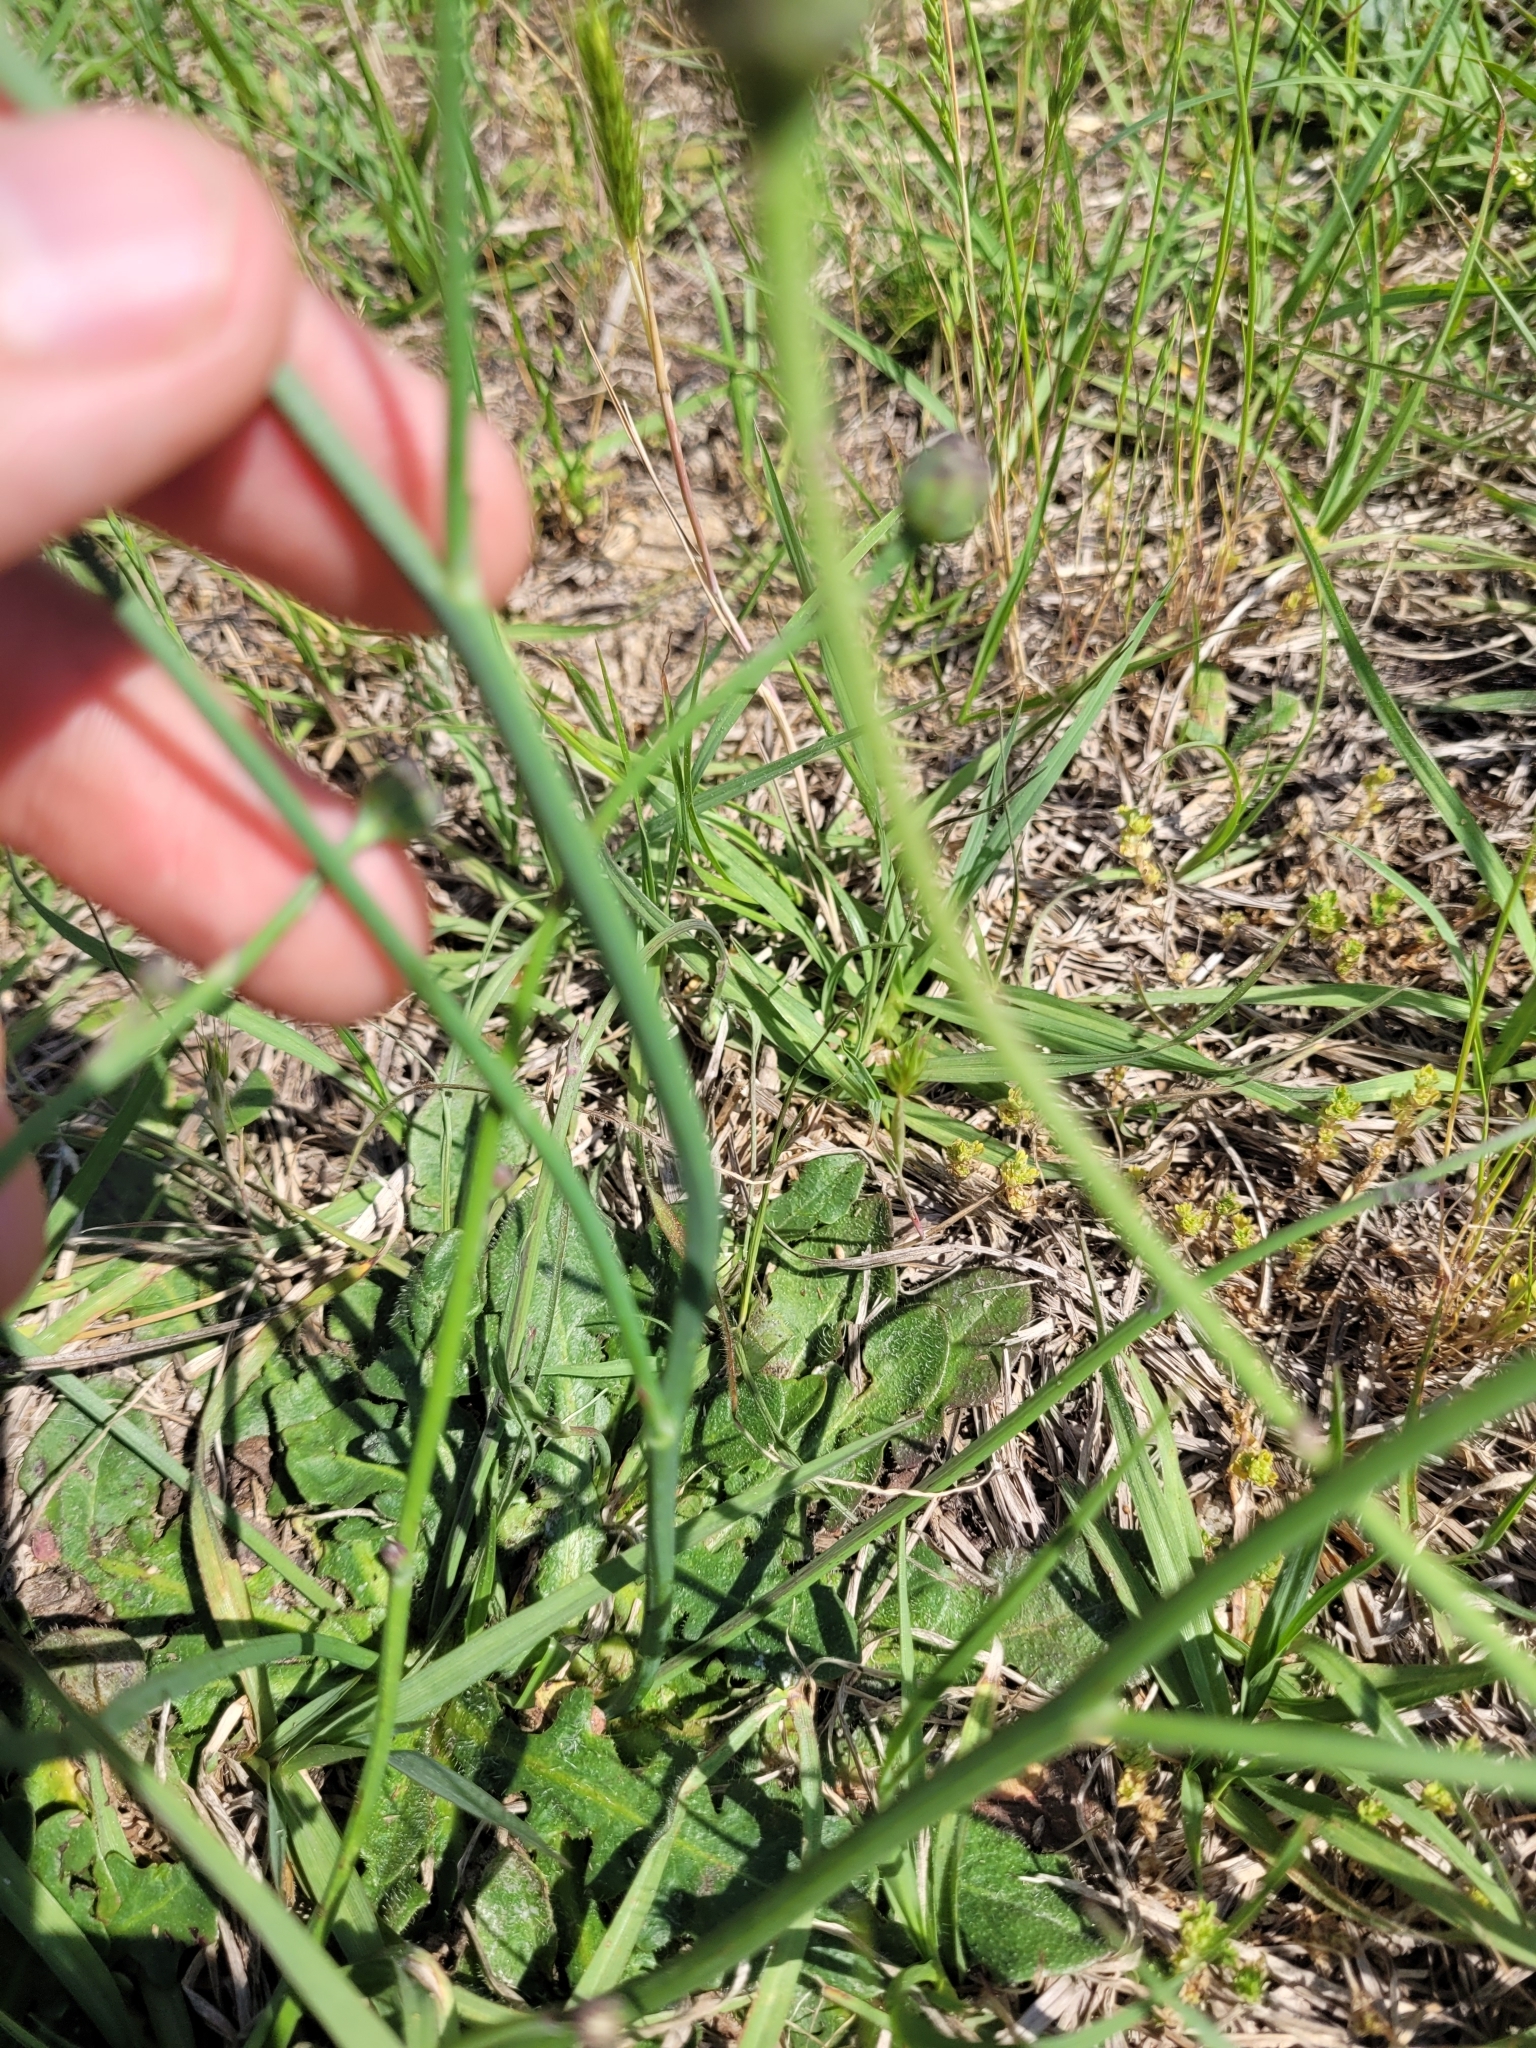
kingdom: Plantae
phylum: Tracheophyta
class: Magnoliopsida
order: Asterales
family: Asteraceae
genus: Hypochaeris
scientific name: Hypochaeris radicata
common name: Flatweed
